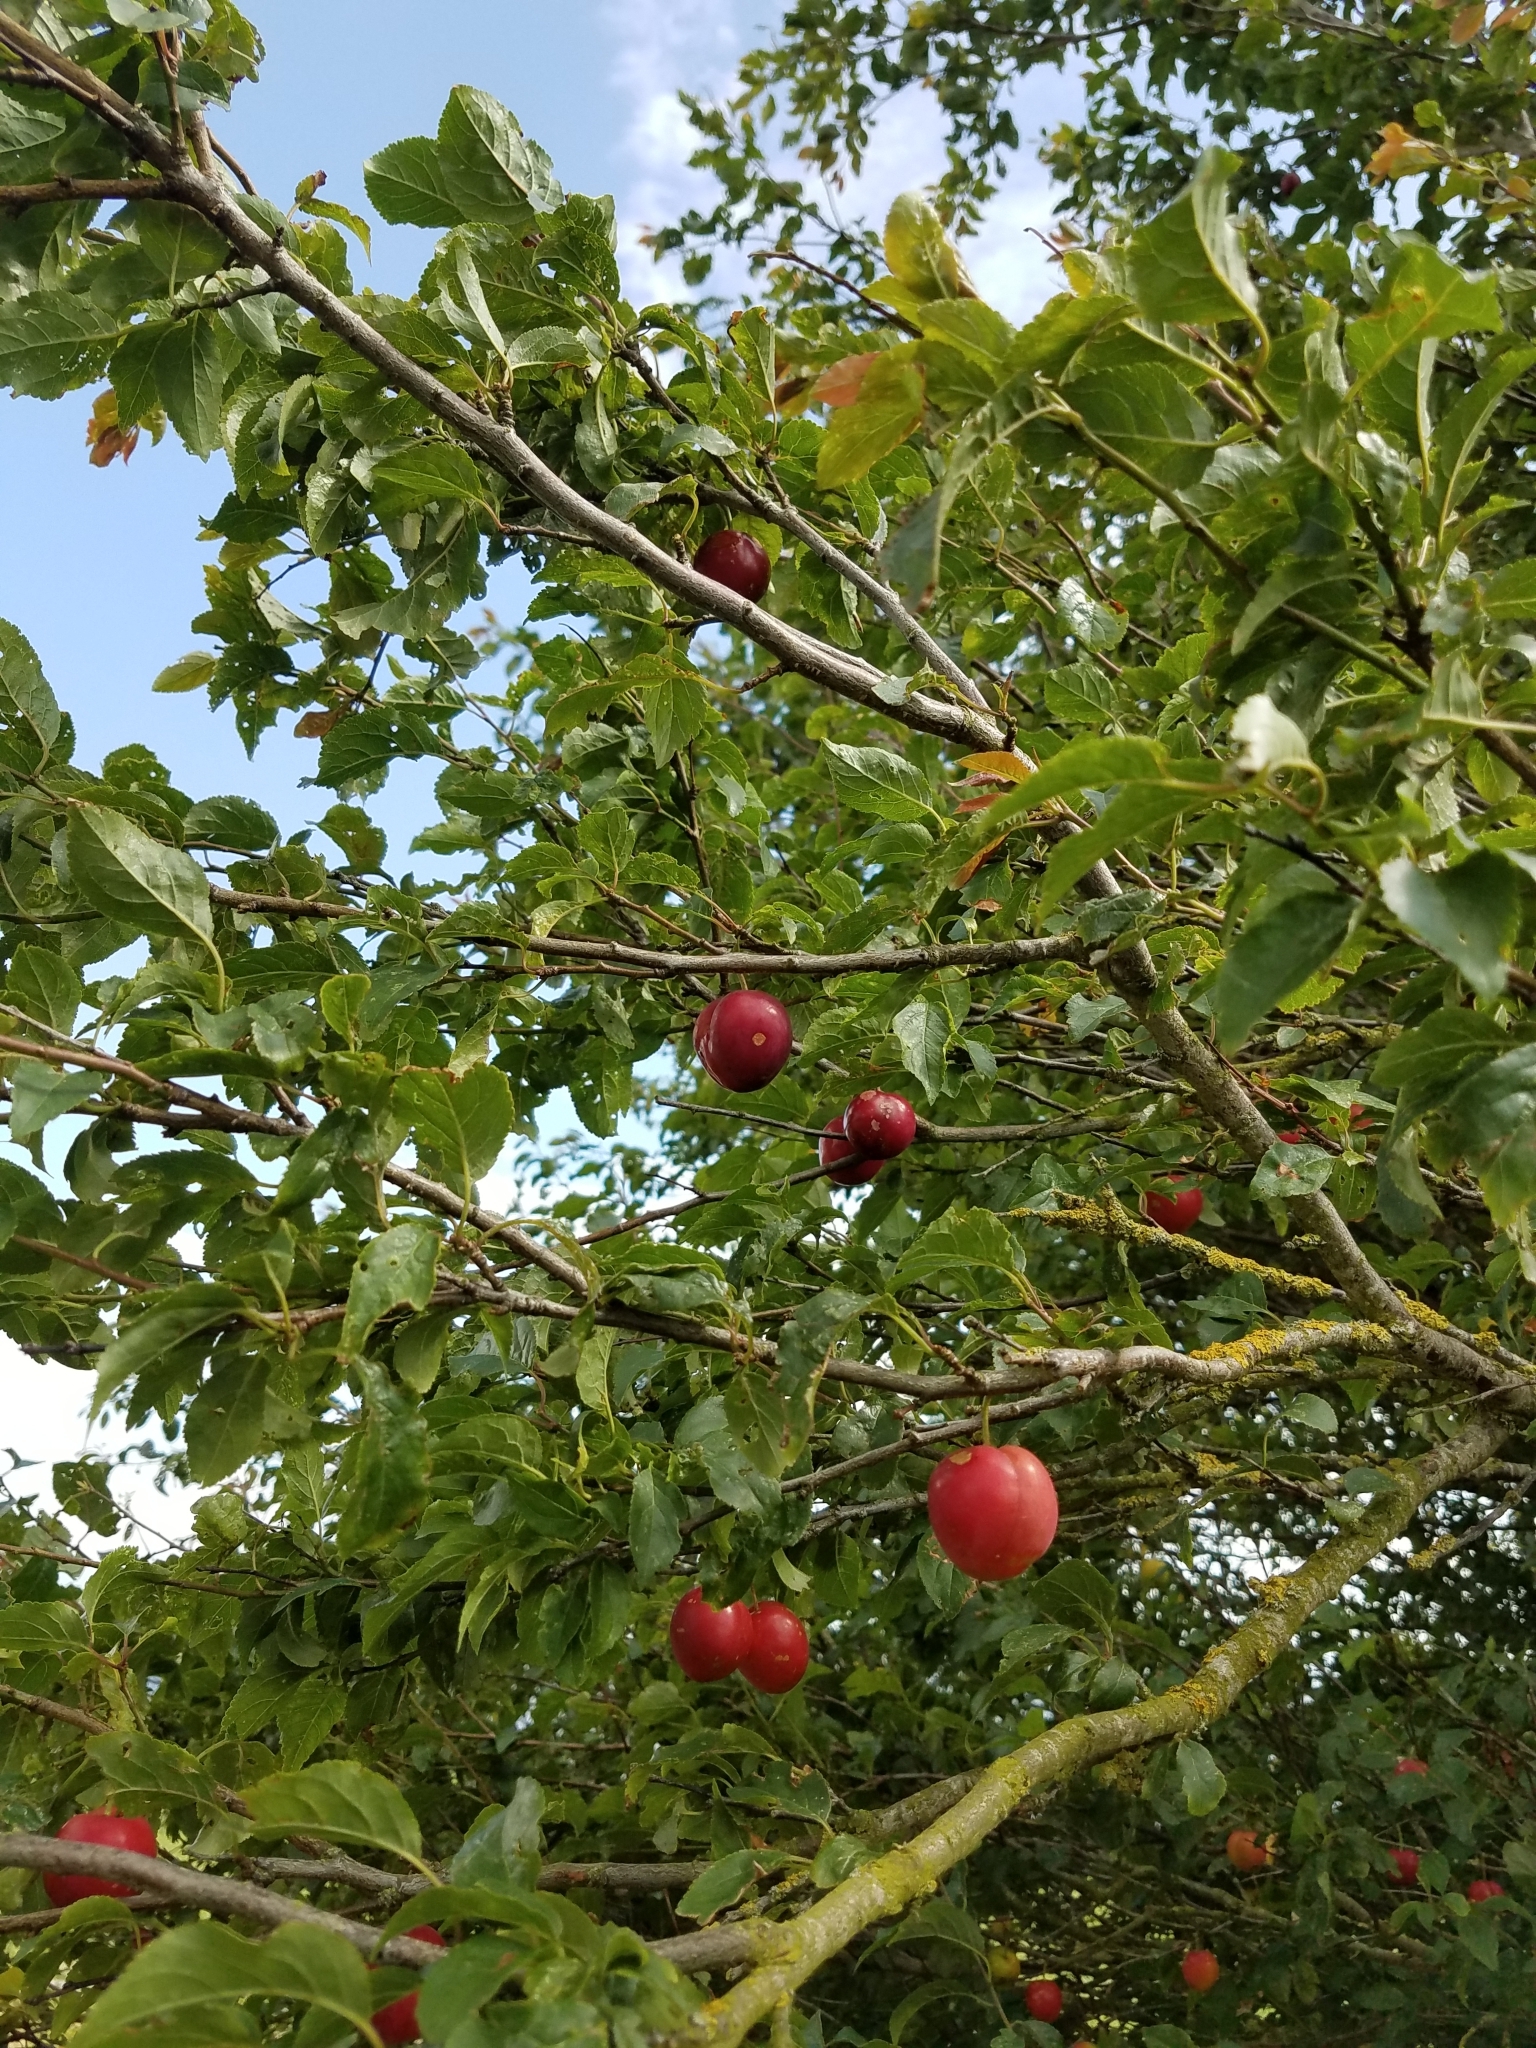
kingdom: Plantae
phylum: Tracheophyta
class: Magnoliopsida
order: Rosales
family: Rosaceae
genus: Prunus
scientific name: Prunus cerasifera
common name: Cherry plum
